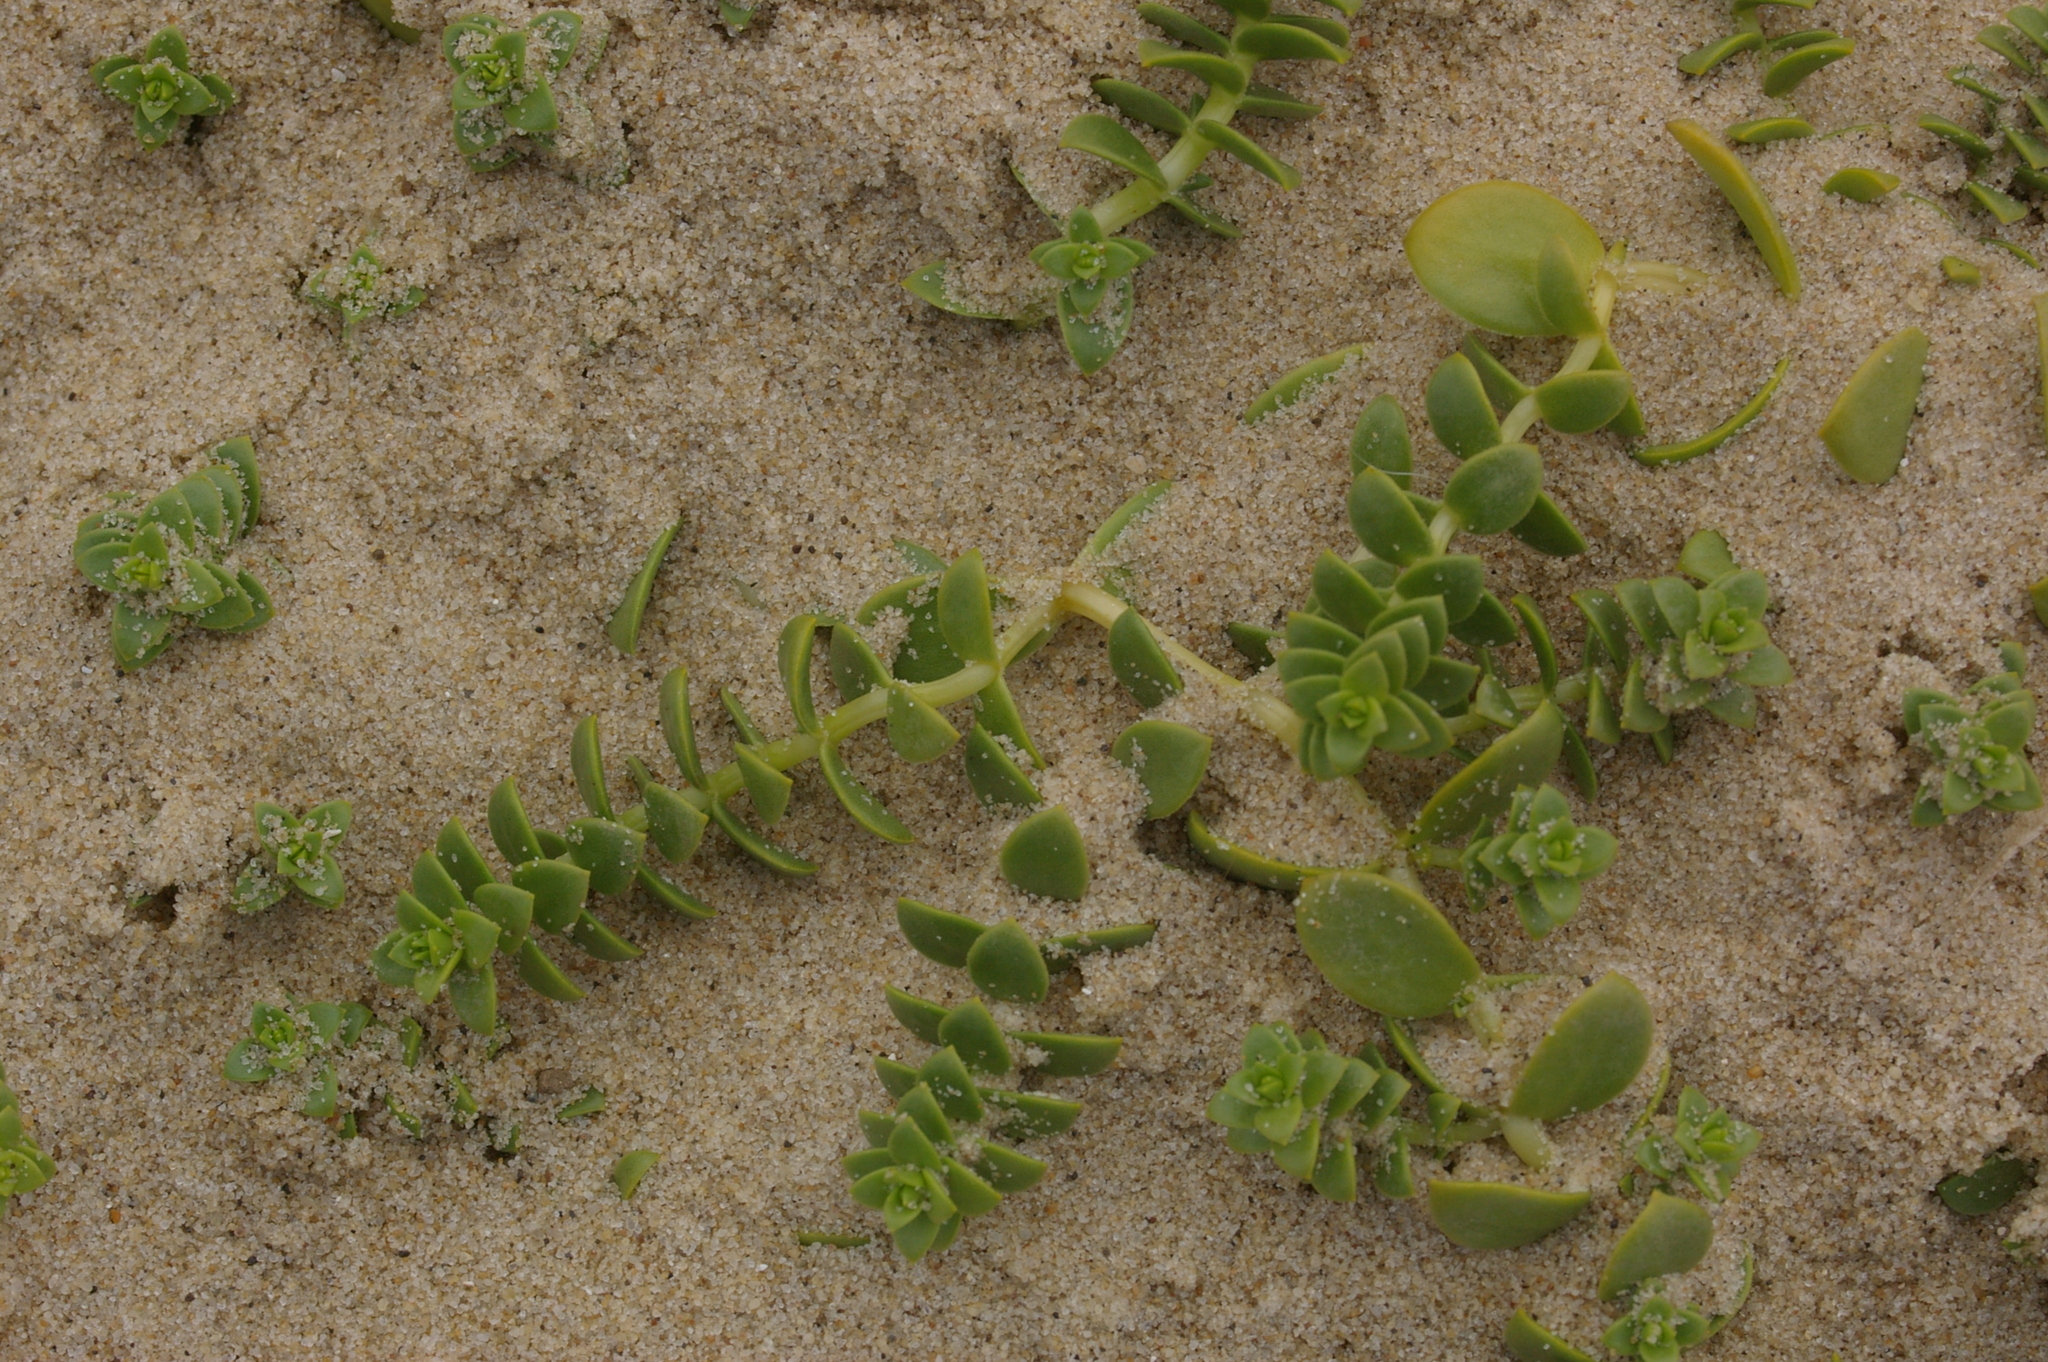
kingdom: Plantae
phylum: Tracheophyta
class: Magnoliopsida
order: Caryophyllales
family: Caryophyllaceae
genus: Honckenya
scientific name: Honckenya peploides
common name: Sea sandwort
